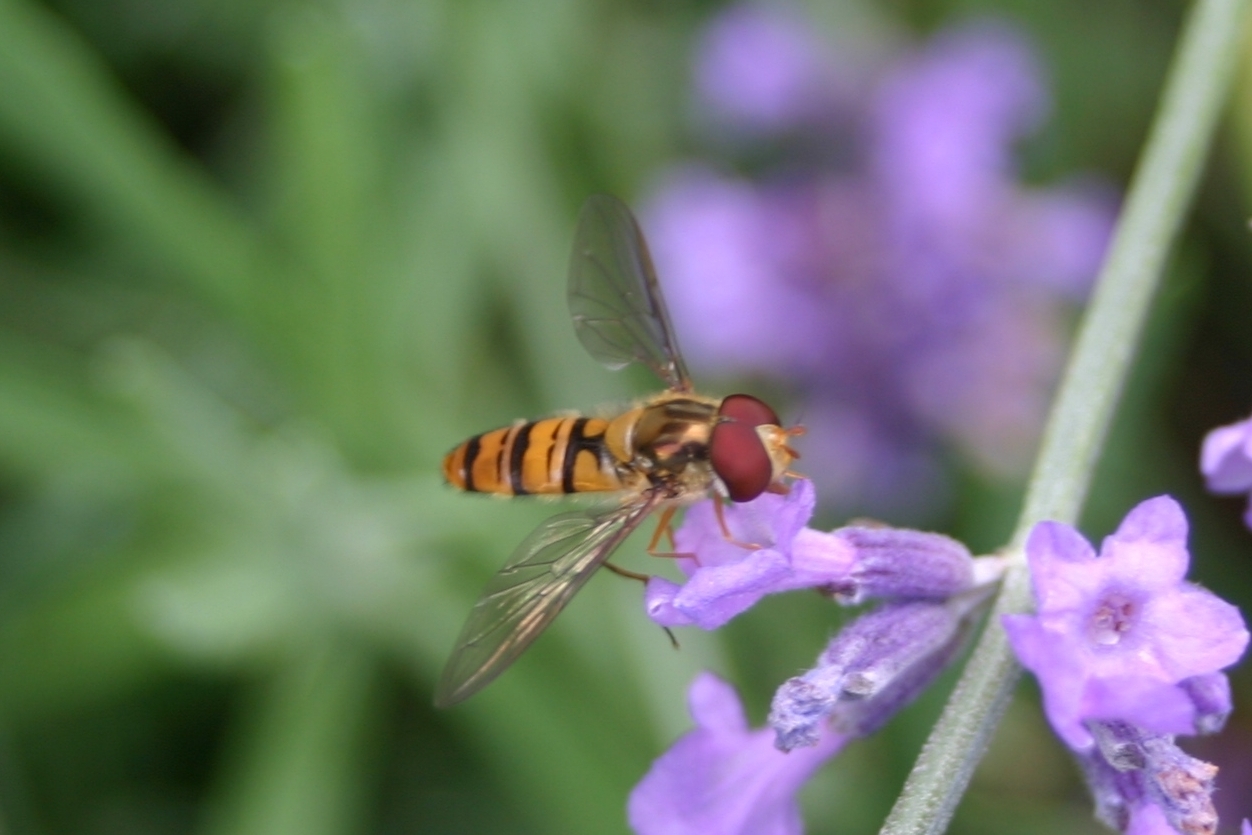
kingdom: Animalia
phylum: Arthropoda
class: Insecta
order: Diptera
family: Syrphidae
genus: Episyrphus
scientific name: Episyrphus balteatus
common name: Marmalade hoverfly
